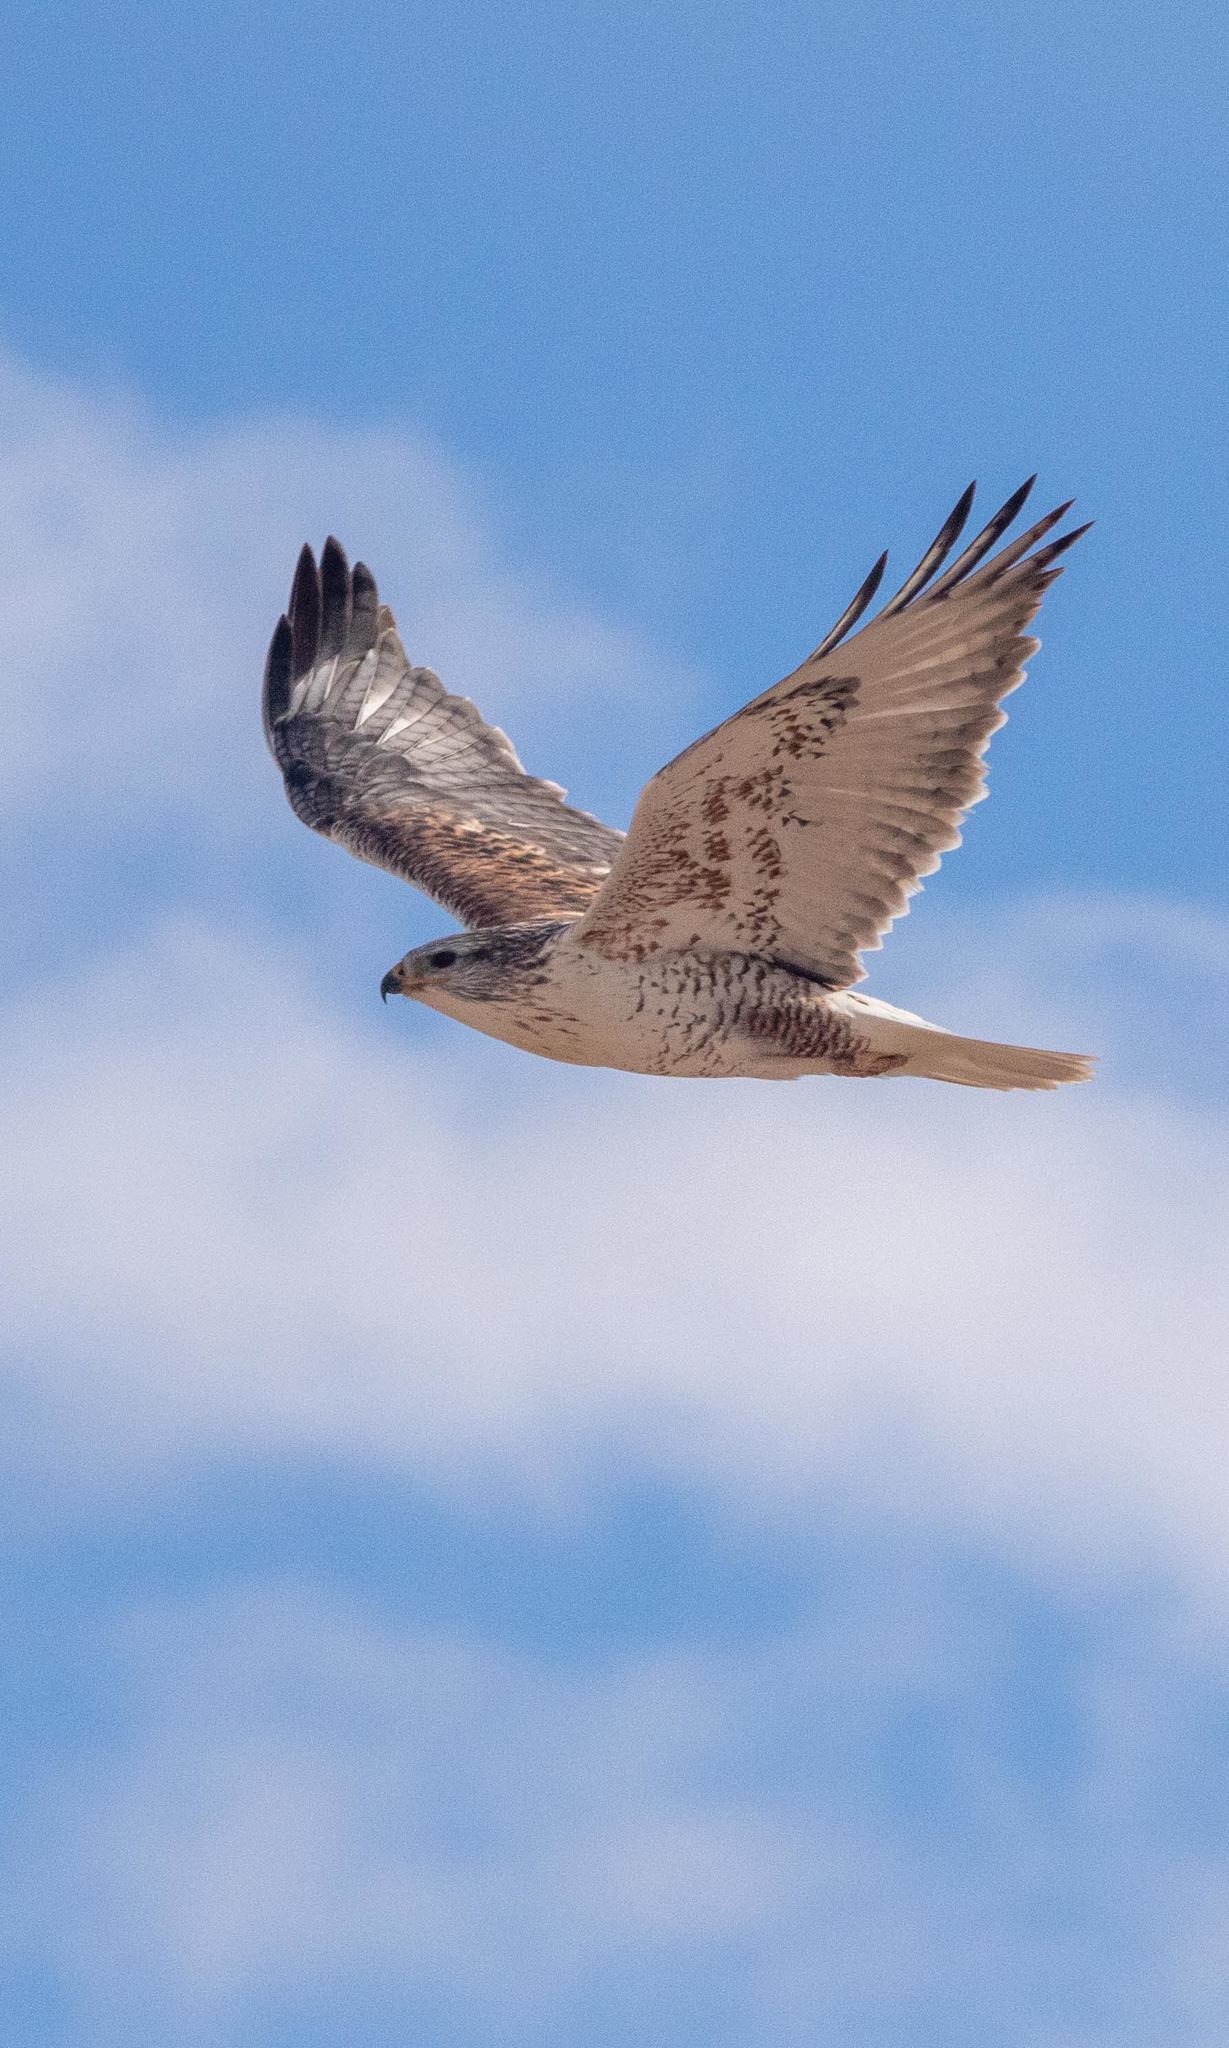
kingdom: Animalia
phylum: Chordata
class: Aves
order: Accipitriformes
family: Accipitridae
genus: Buteo
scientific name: Buteo regalis
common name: Ferruginous hawk
